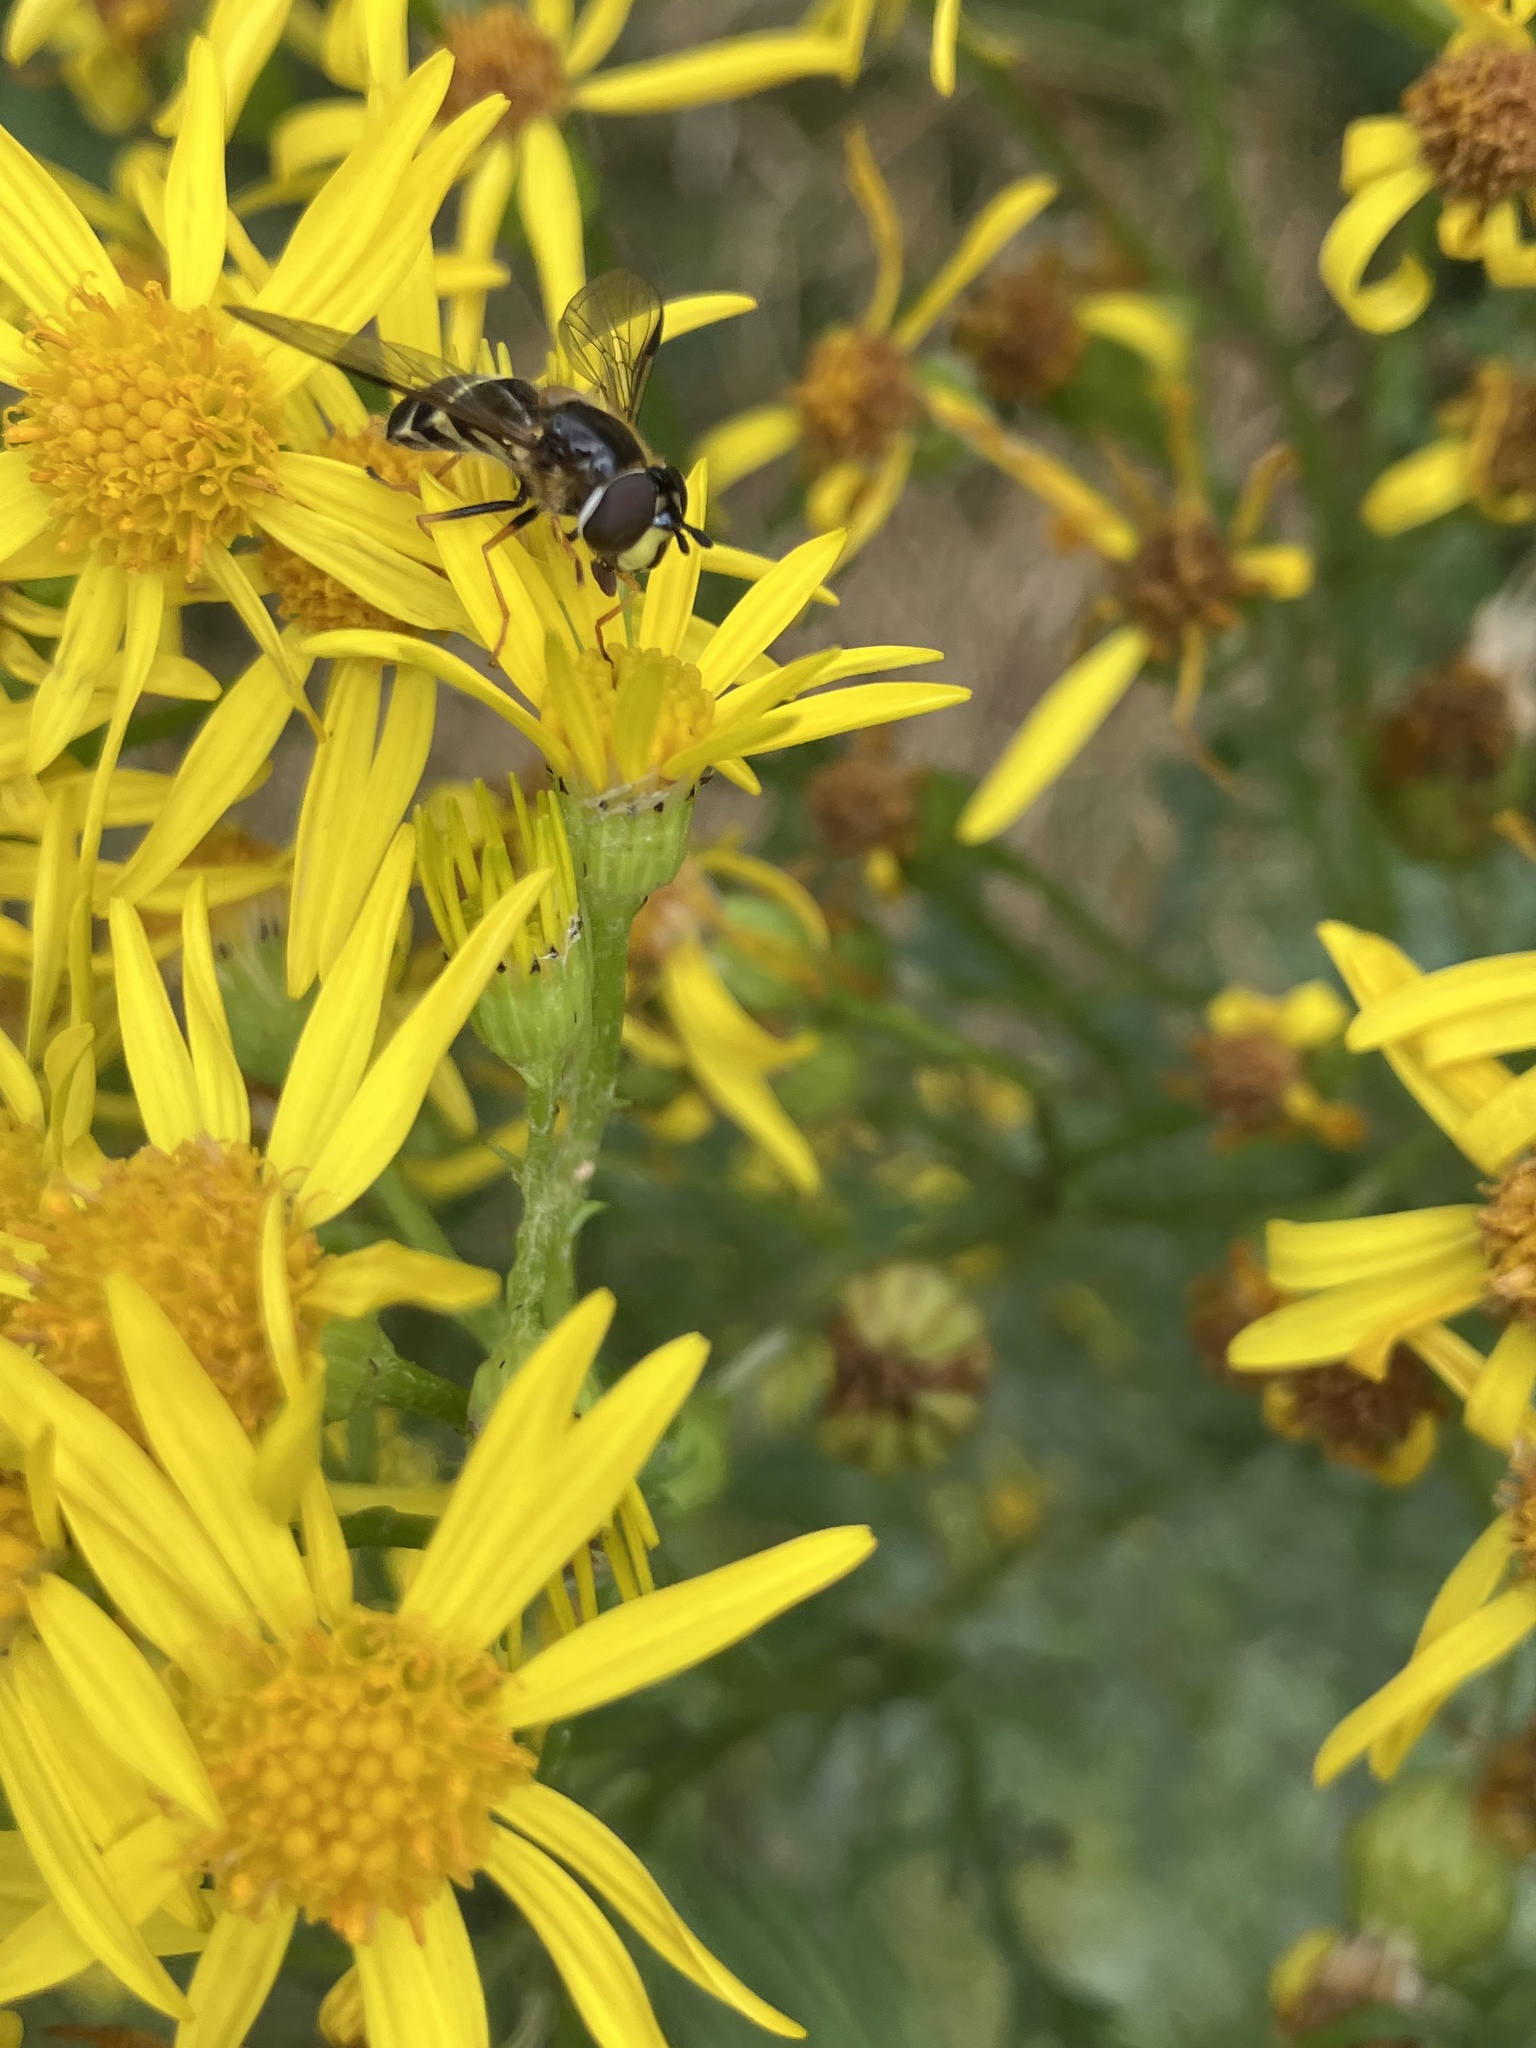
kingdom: Animalia
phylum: Arthropoda
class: Insecta
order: Diptera
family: Syrphidae
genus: Dasysyrphus
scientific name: Dasysyrphus tricinctus
